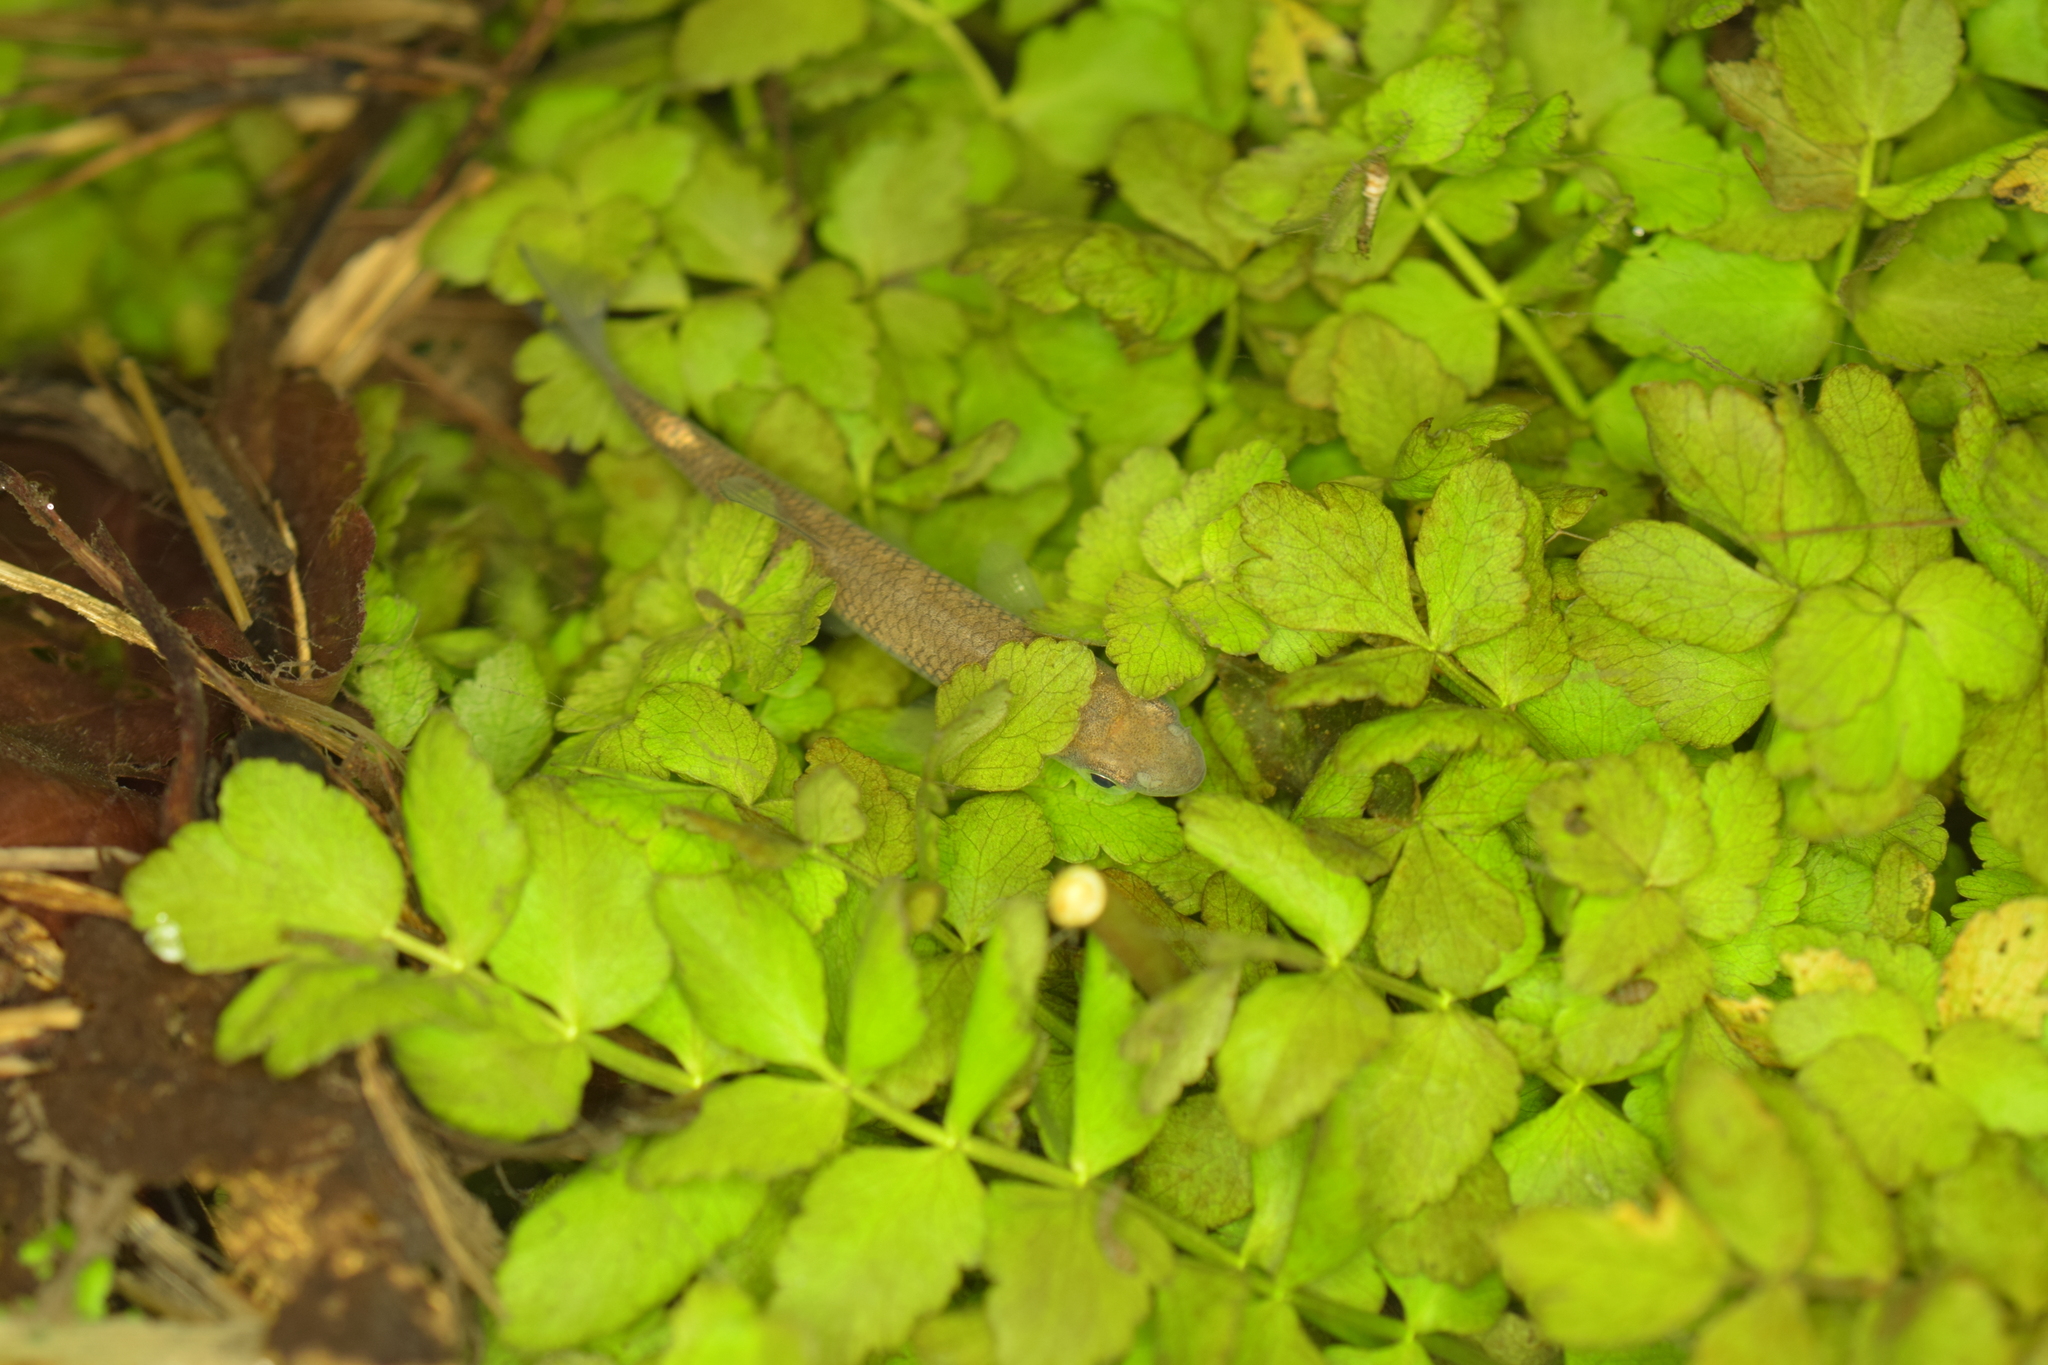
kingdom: Animalia
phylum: Chordata
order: Cypriniformes
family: Cyprinidae
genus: Squalius
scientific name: Squalius cephalus
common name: Chub
